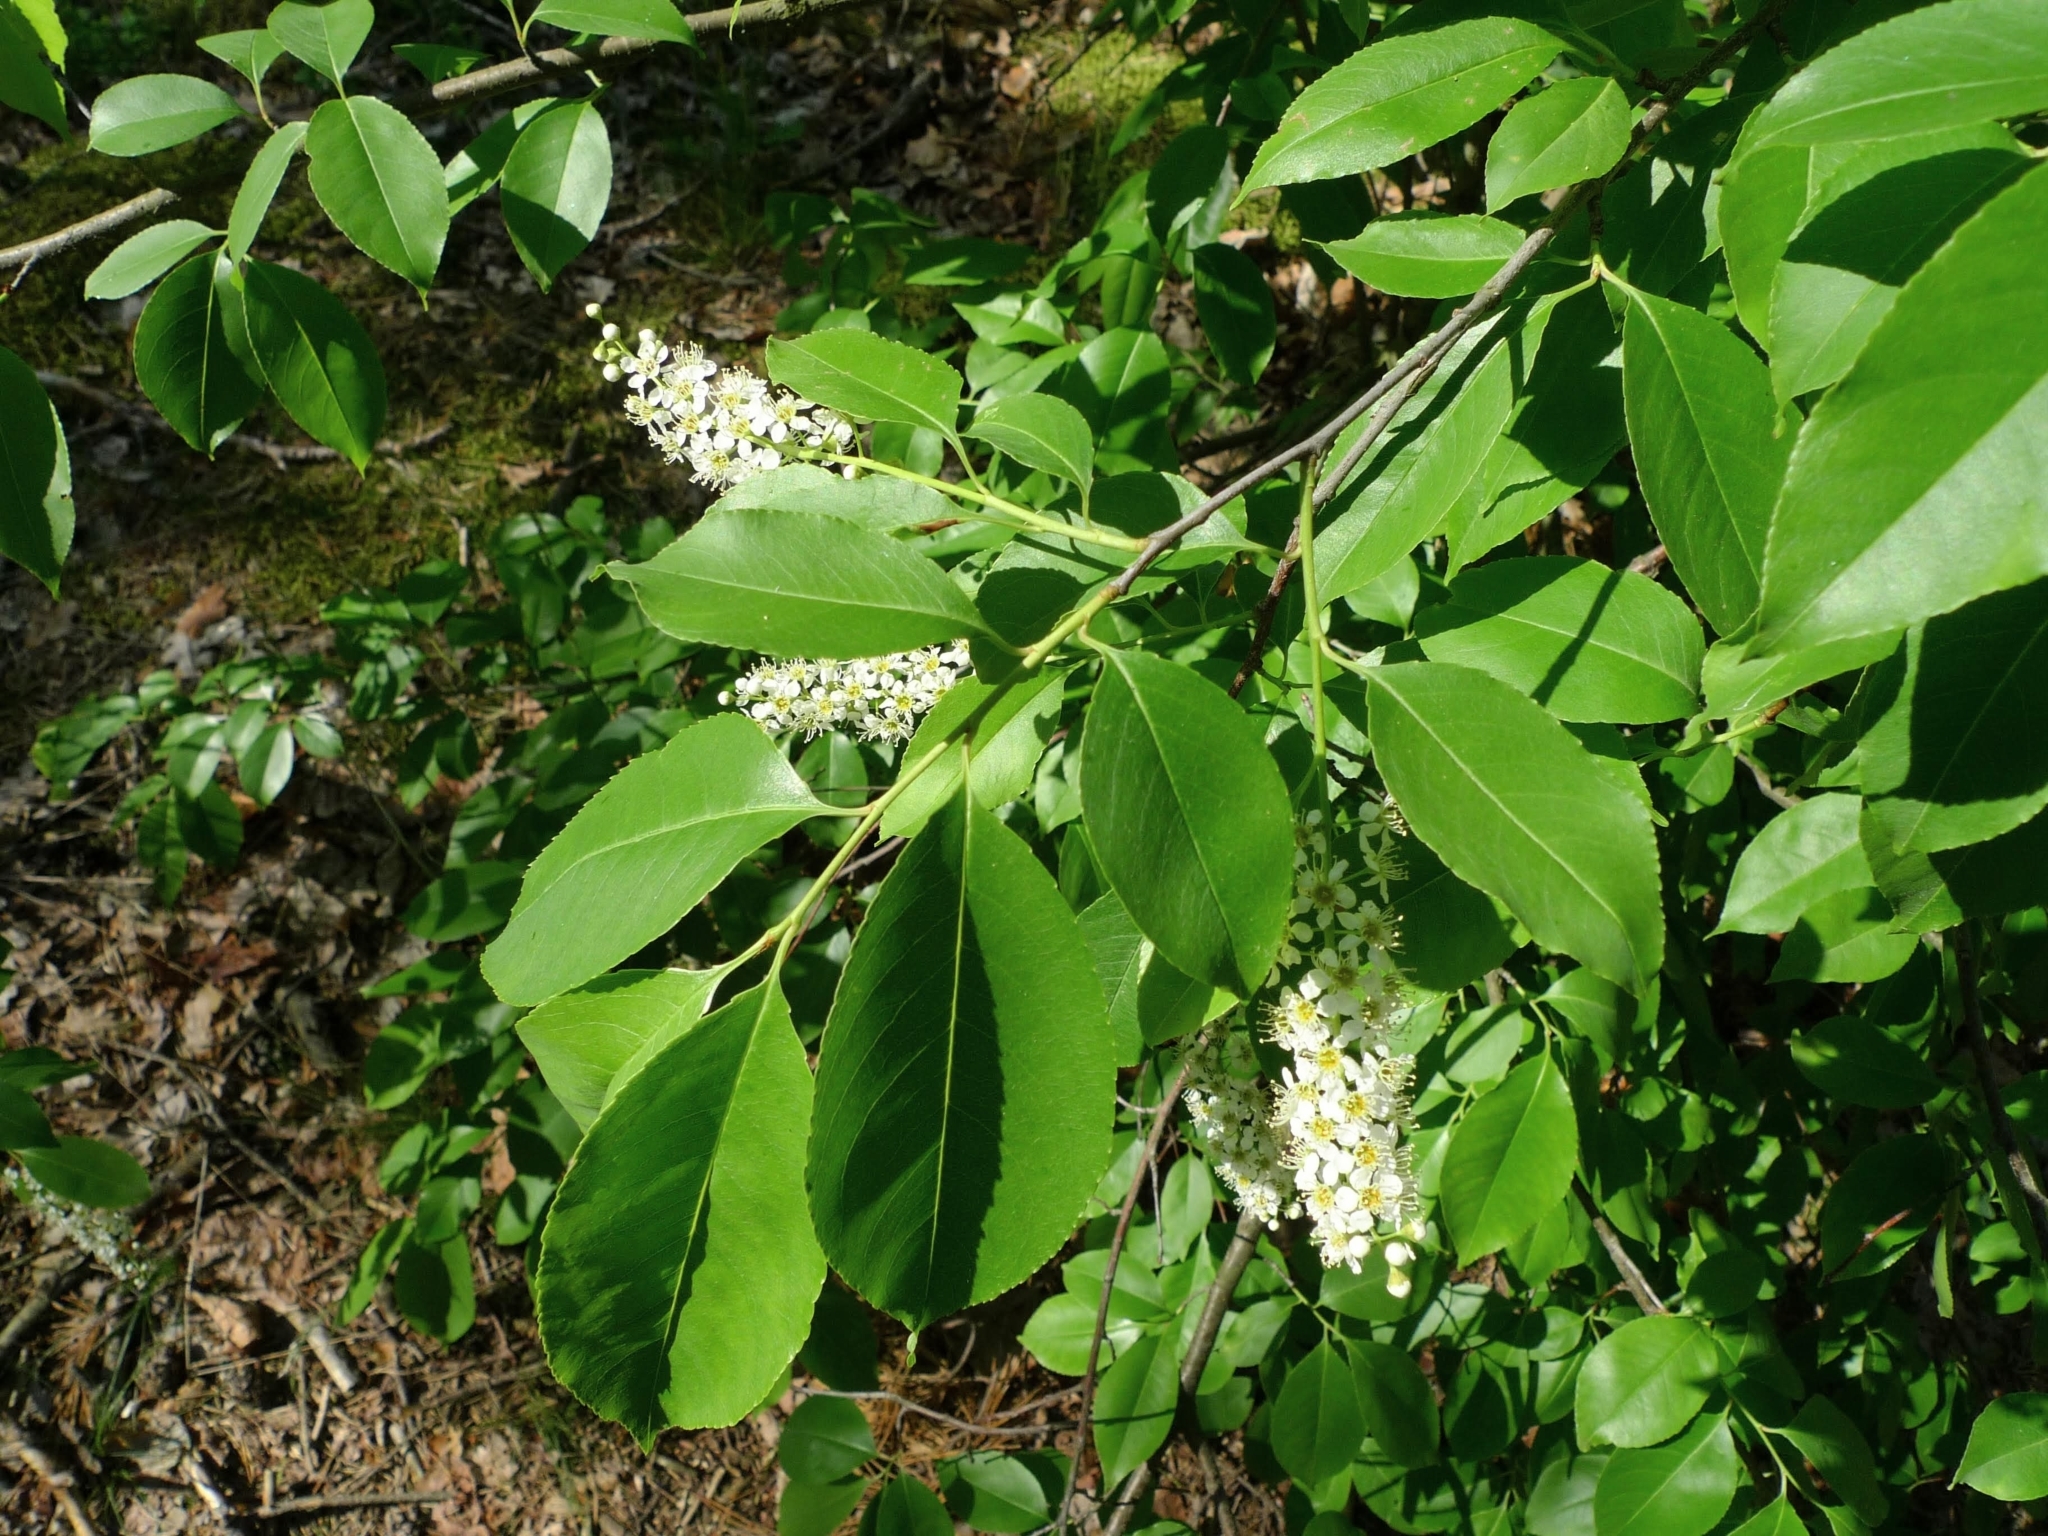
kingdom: Plantae
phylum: Tracheophyta
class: Magnoliopsida
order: Rosales
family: Rosaceae
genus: Prunus
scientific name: Prunus serotina
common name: Black cherry
